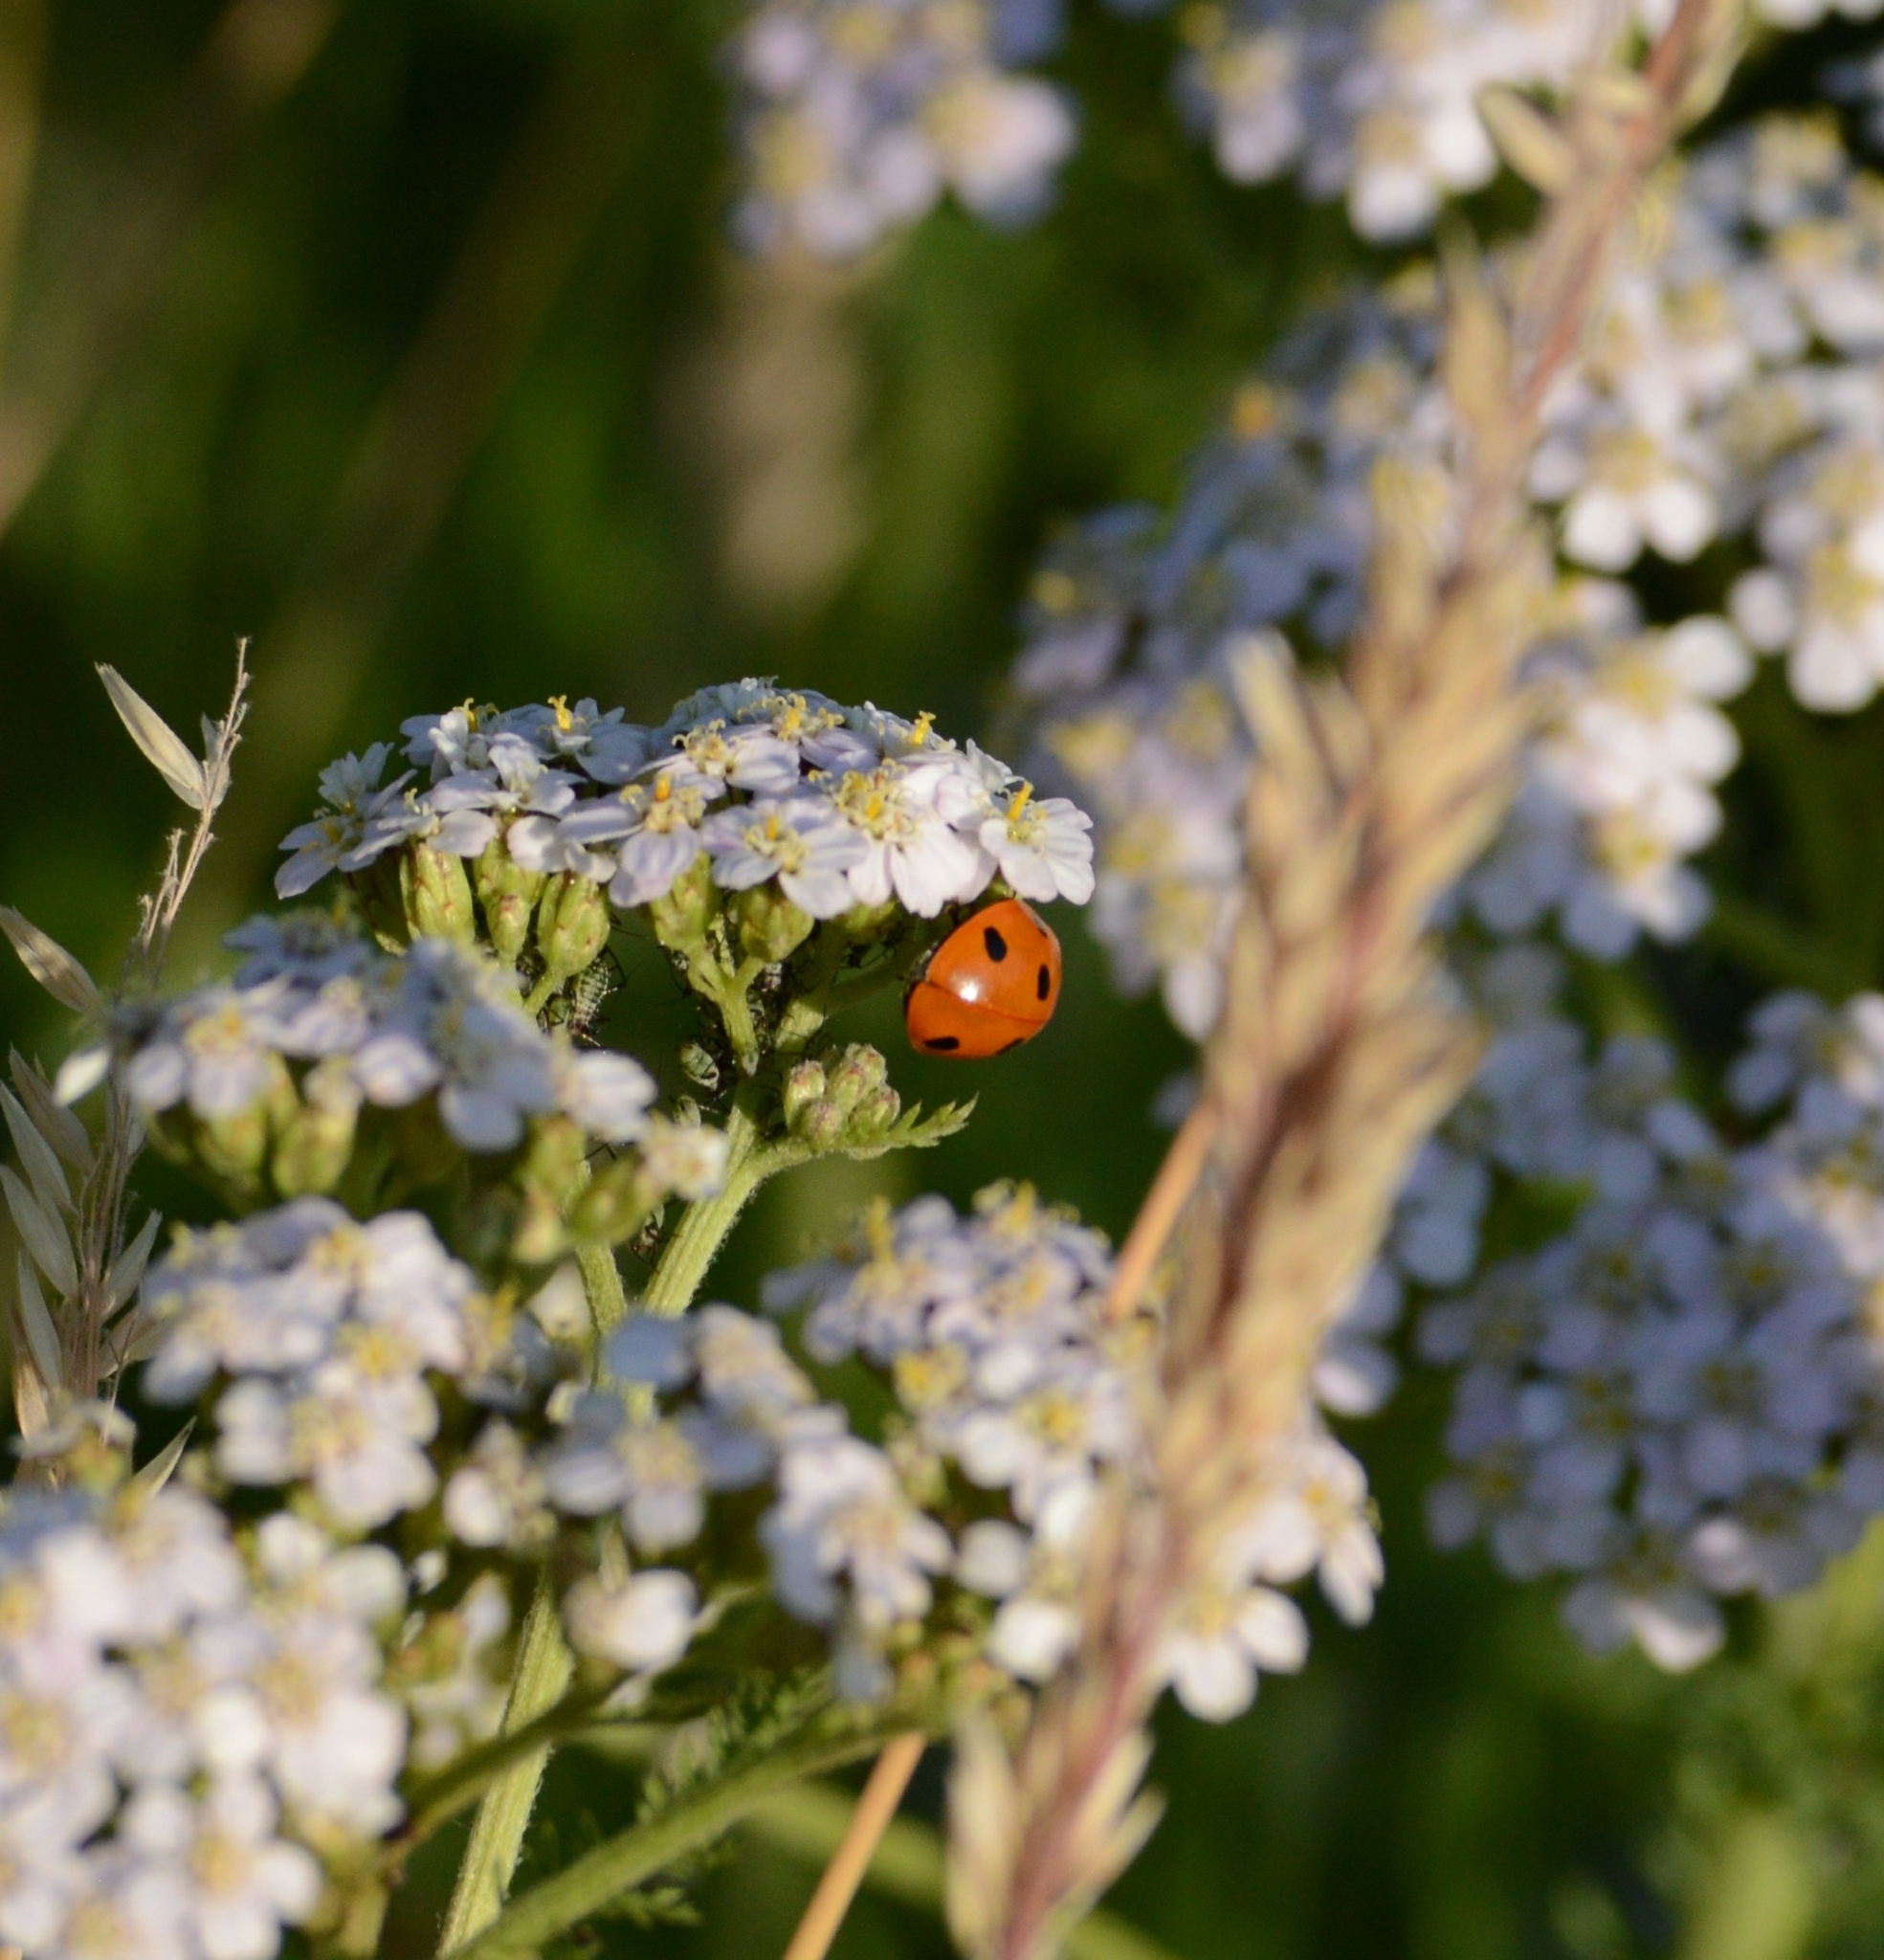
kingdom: Animalia
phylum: Arthropoda
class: Insecta
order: Coleoptera
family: Coccinellidae
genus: Coccinella
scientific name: Coccinella septempunctata
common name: Sevenspotted lady beetle
